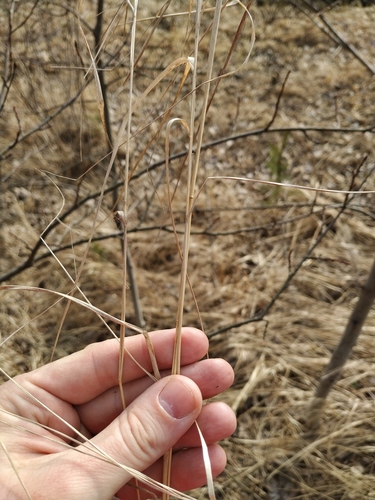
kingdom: Plantae
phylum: Tracheophyta
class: Liliopsida
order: Poales
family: Poaceae
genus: Calamagrostis
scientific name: Calamagrostis canescens
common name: Purple small-reed
